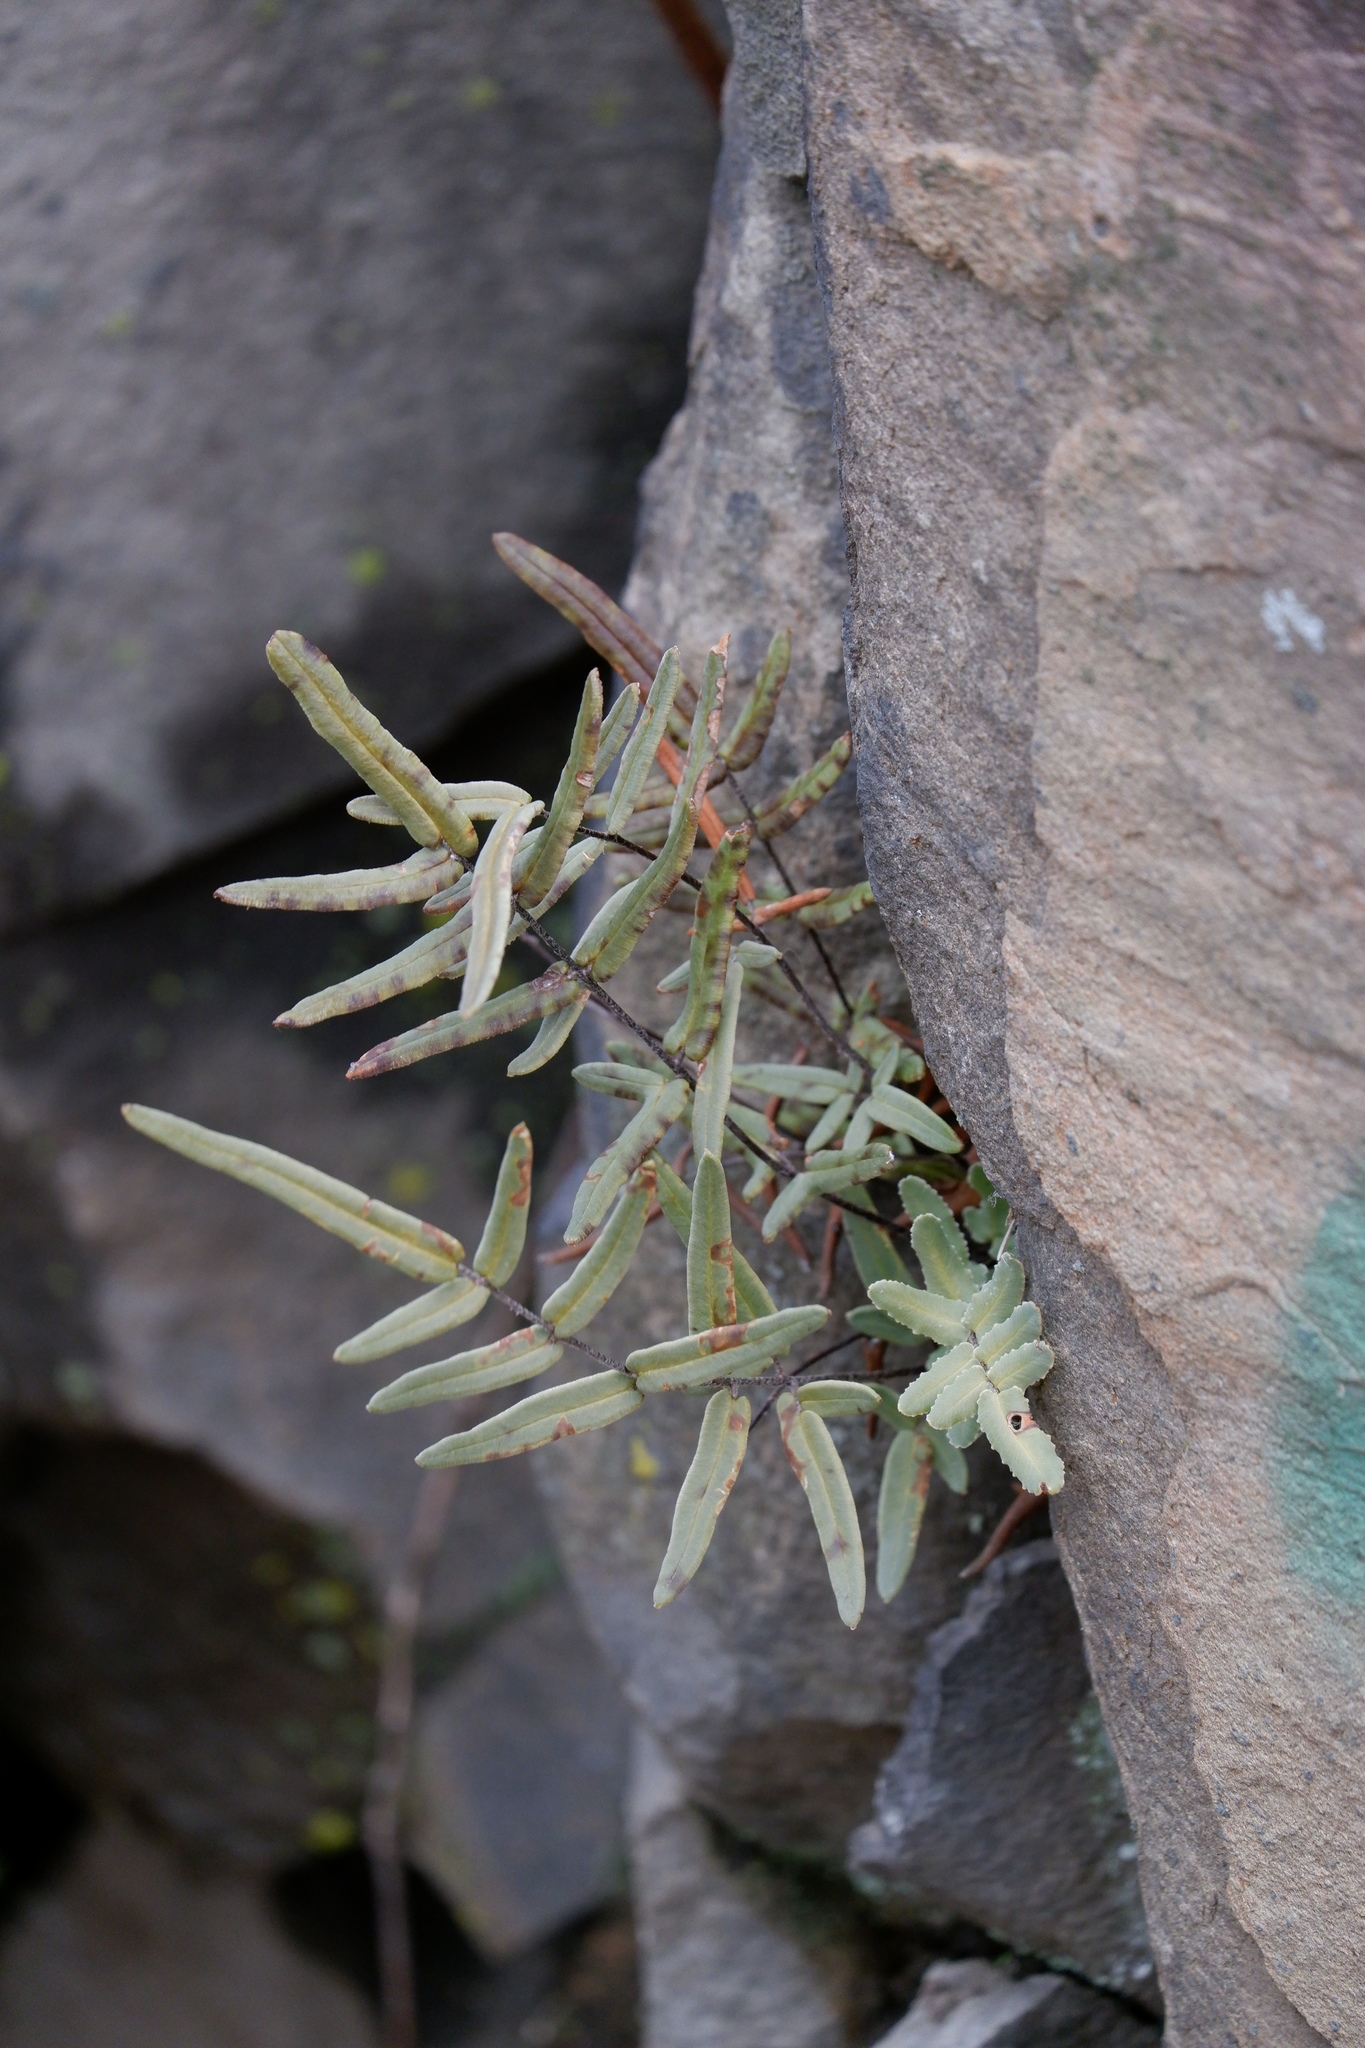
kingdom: Plantae
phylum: Tracheophyta
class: Polypodiopsida
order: Polypodiales
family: Pteridaceae
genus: Pellaea
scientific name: Pellaea atropurpurea
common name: Hairy cliffbrake
